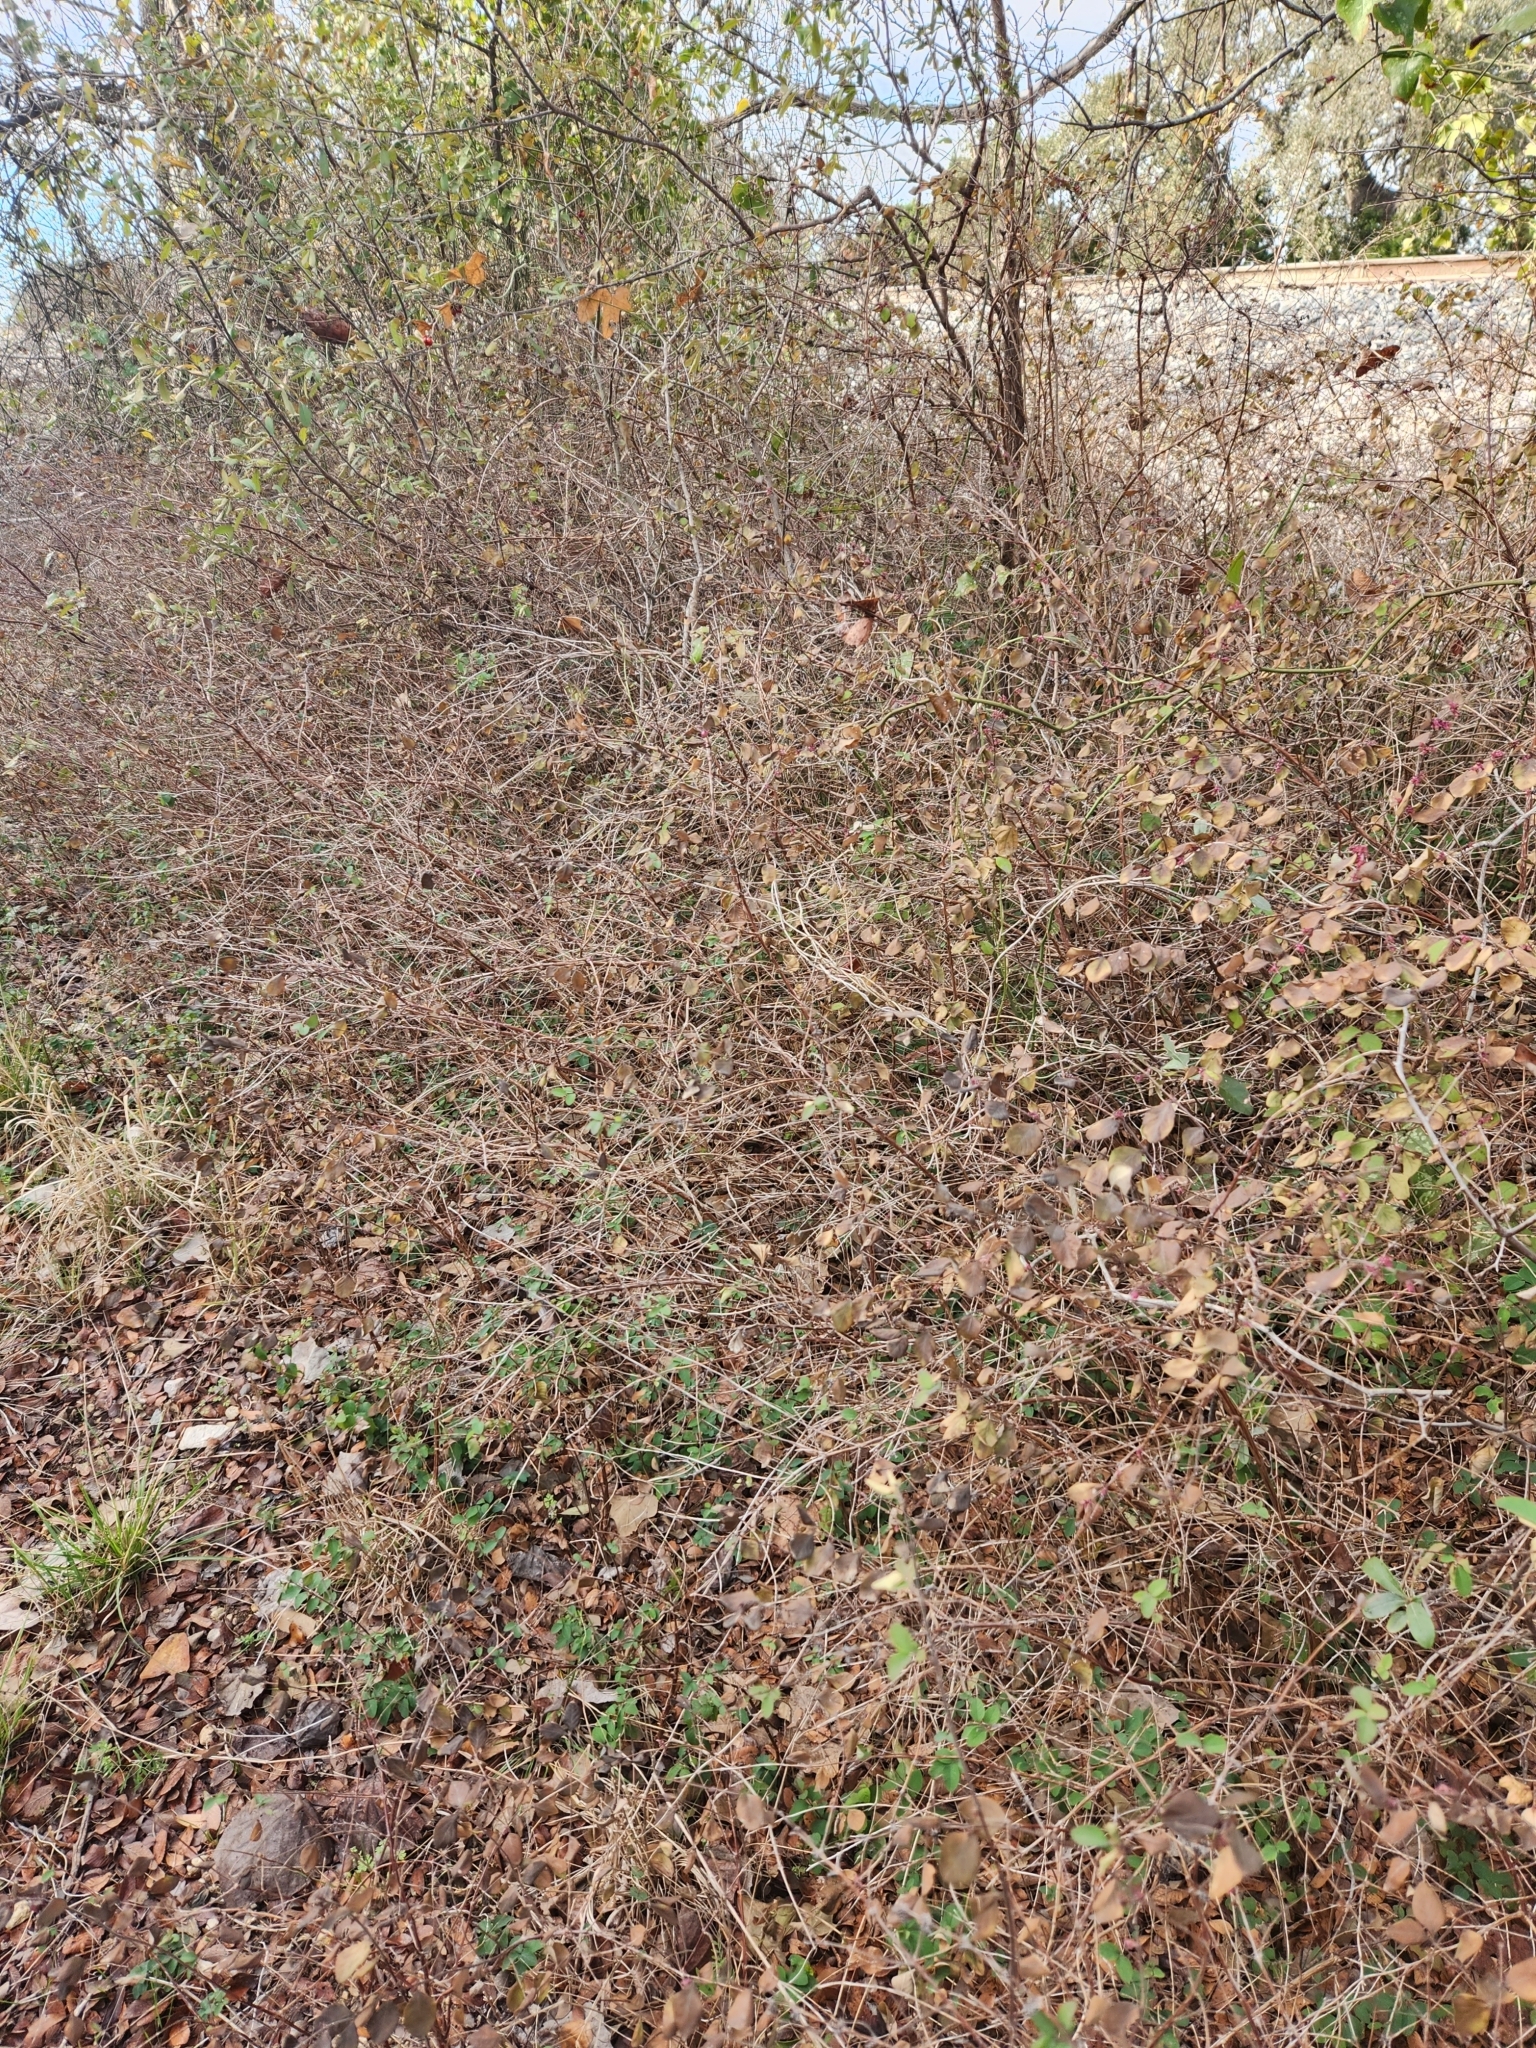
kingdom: Plantae
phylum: Tracheophyta
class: Magnoliopsida
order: Dipsacales
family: Caprifoliaceae
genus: Symphoricarpos
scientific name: Symphoricarpos orbiculatus
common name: Coralberry
